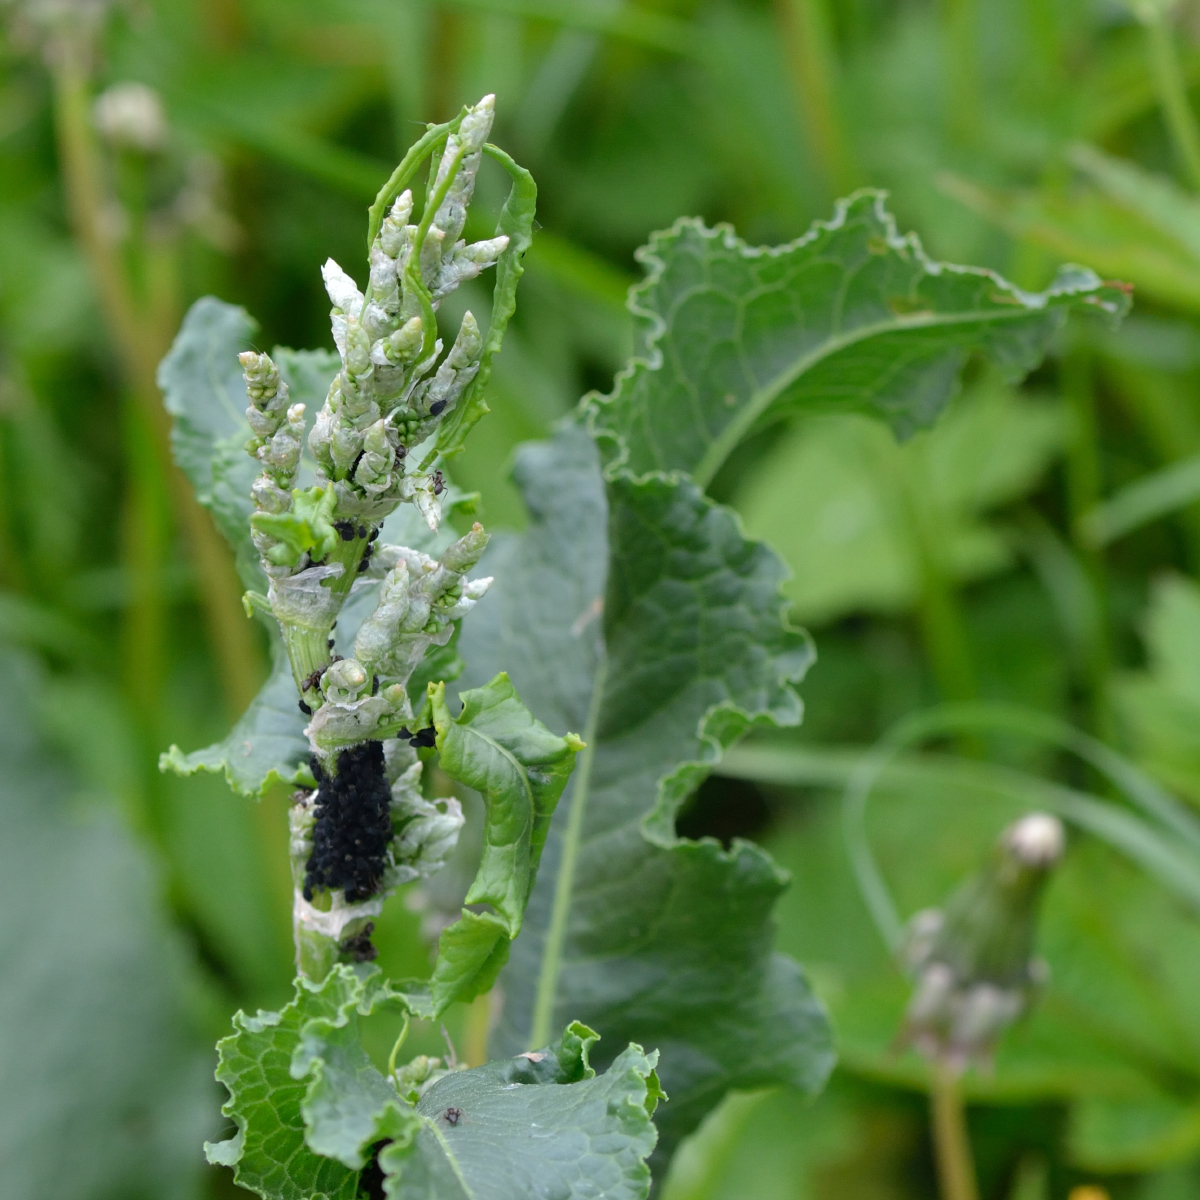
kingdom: Plantae
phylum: Tracheophyta
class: Magnoliopsida
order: Caryophyllales
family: Polygonaceae
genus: Rumex
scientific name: Rumex confertus
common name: Russian dock
